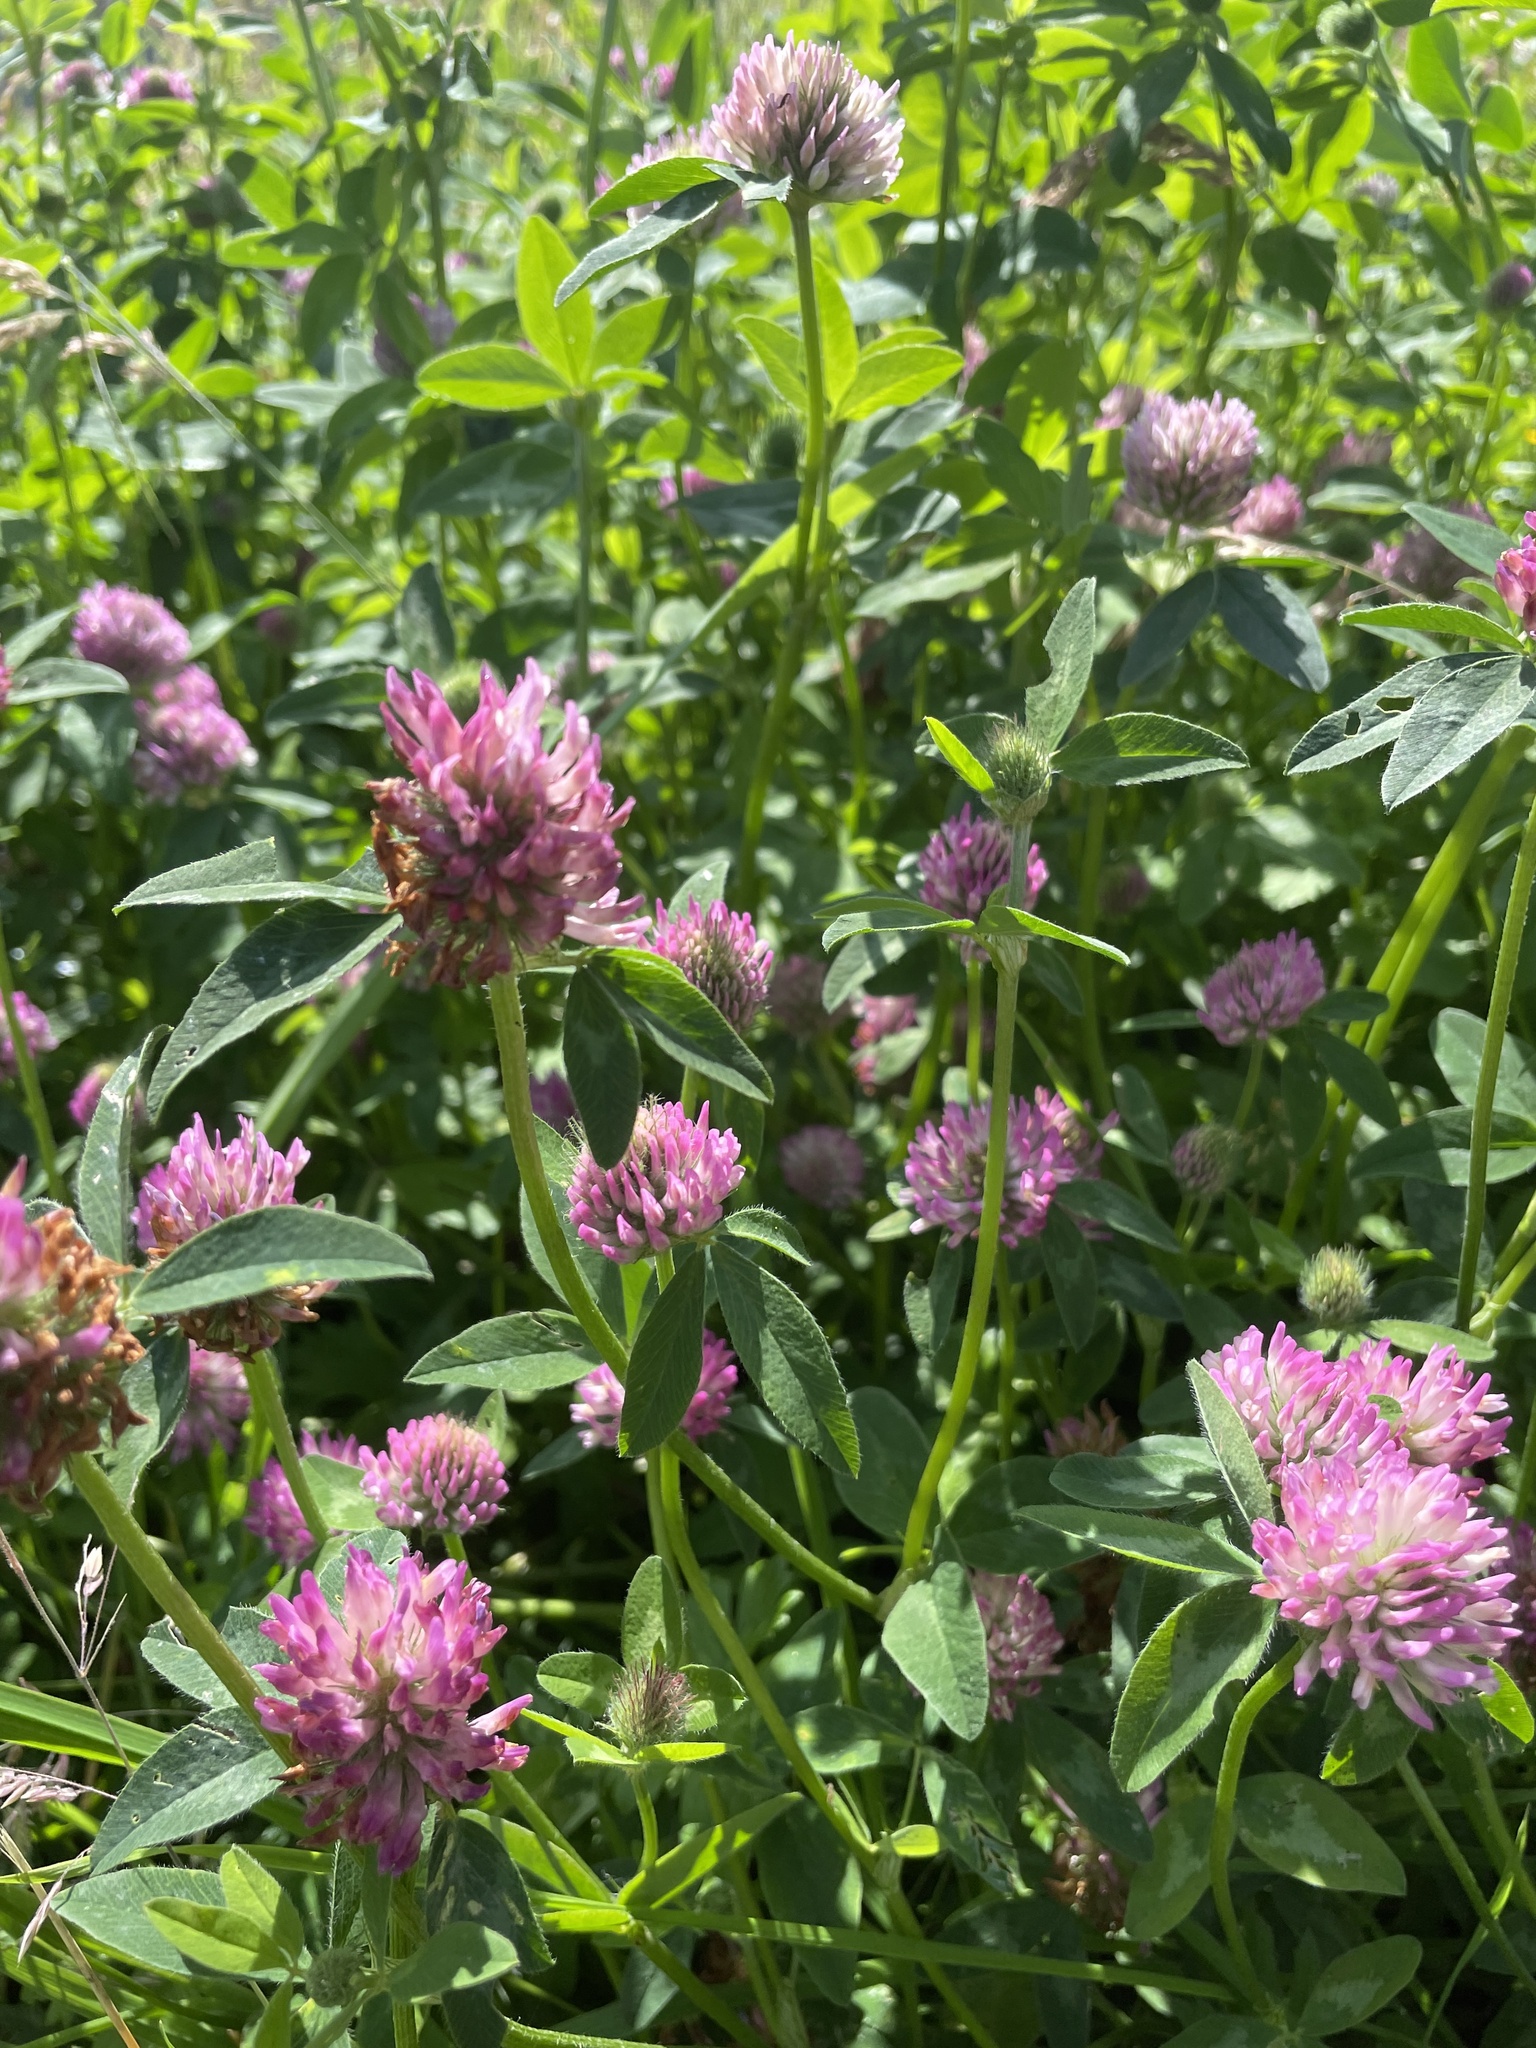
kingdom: Plantae
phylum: Tracheophyta
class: Magnoliopsida
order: Fabales
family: Fabaceae
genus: Trifolium
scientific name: Trifolium pratense
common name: Red clover
